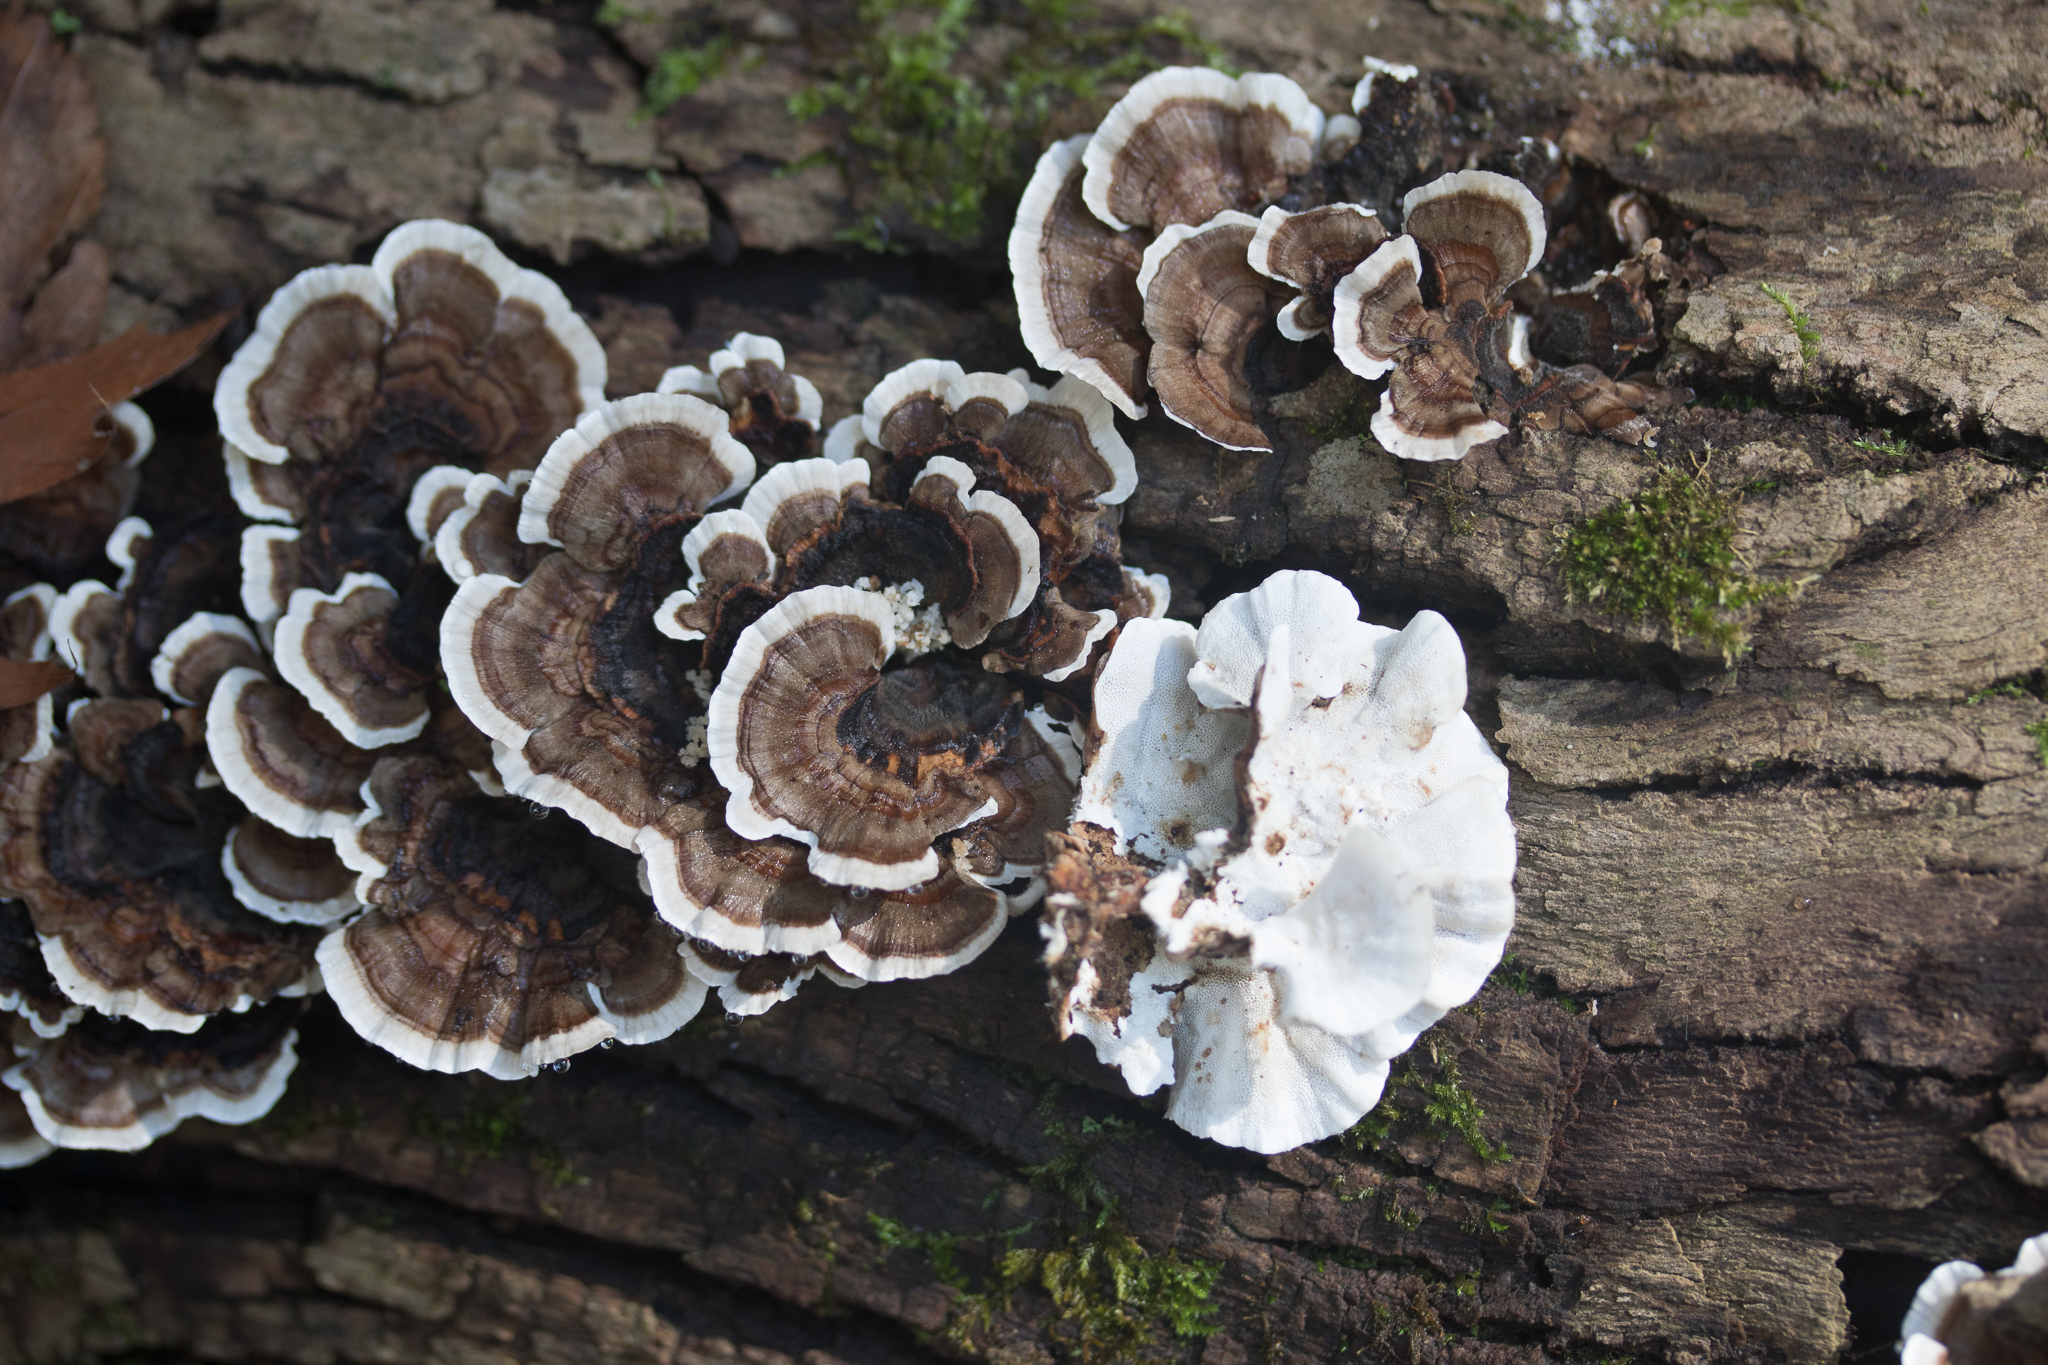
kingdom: Fungi
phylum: Basidiomycota
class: Agaricomycetes
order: Polyporales
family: Polyporaceae
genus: Trametes
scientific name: Trametes versicolor
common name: Turkeytail
